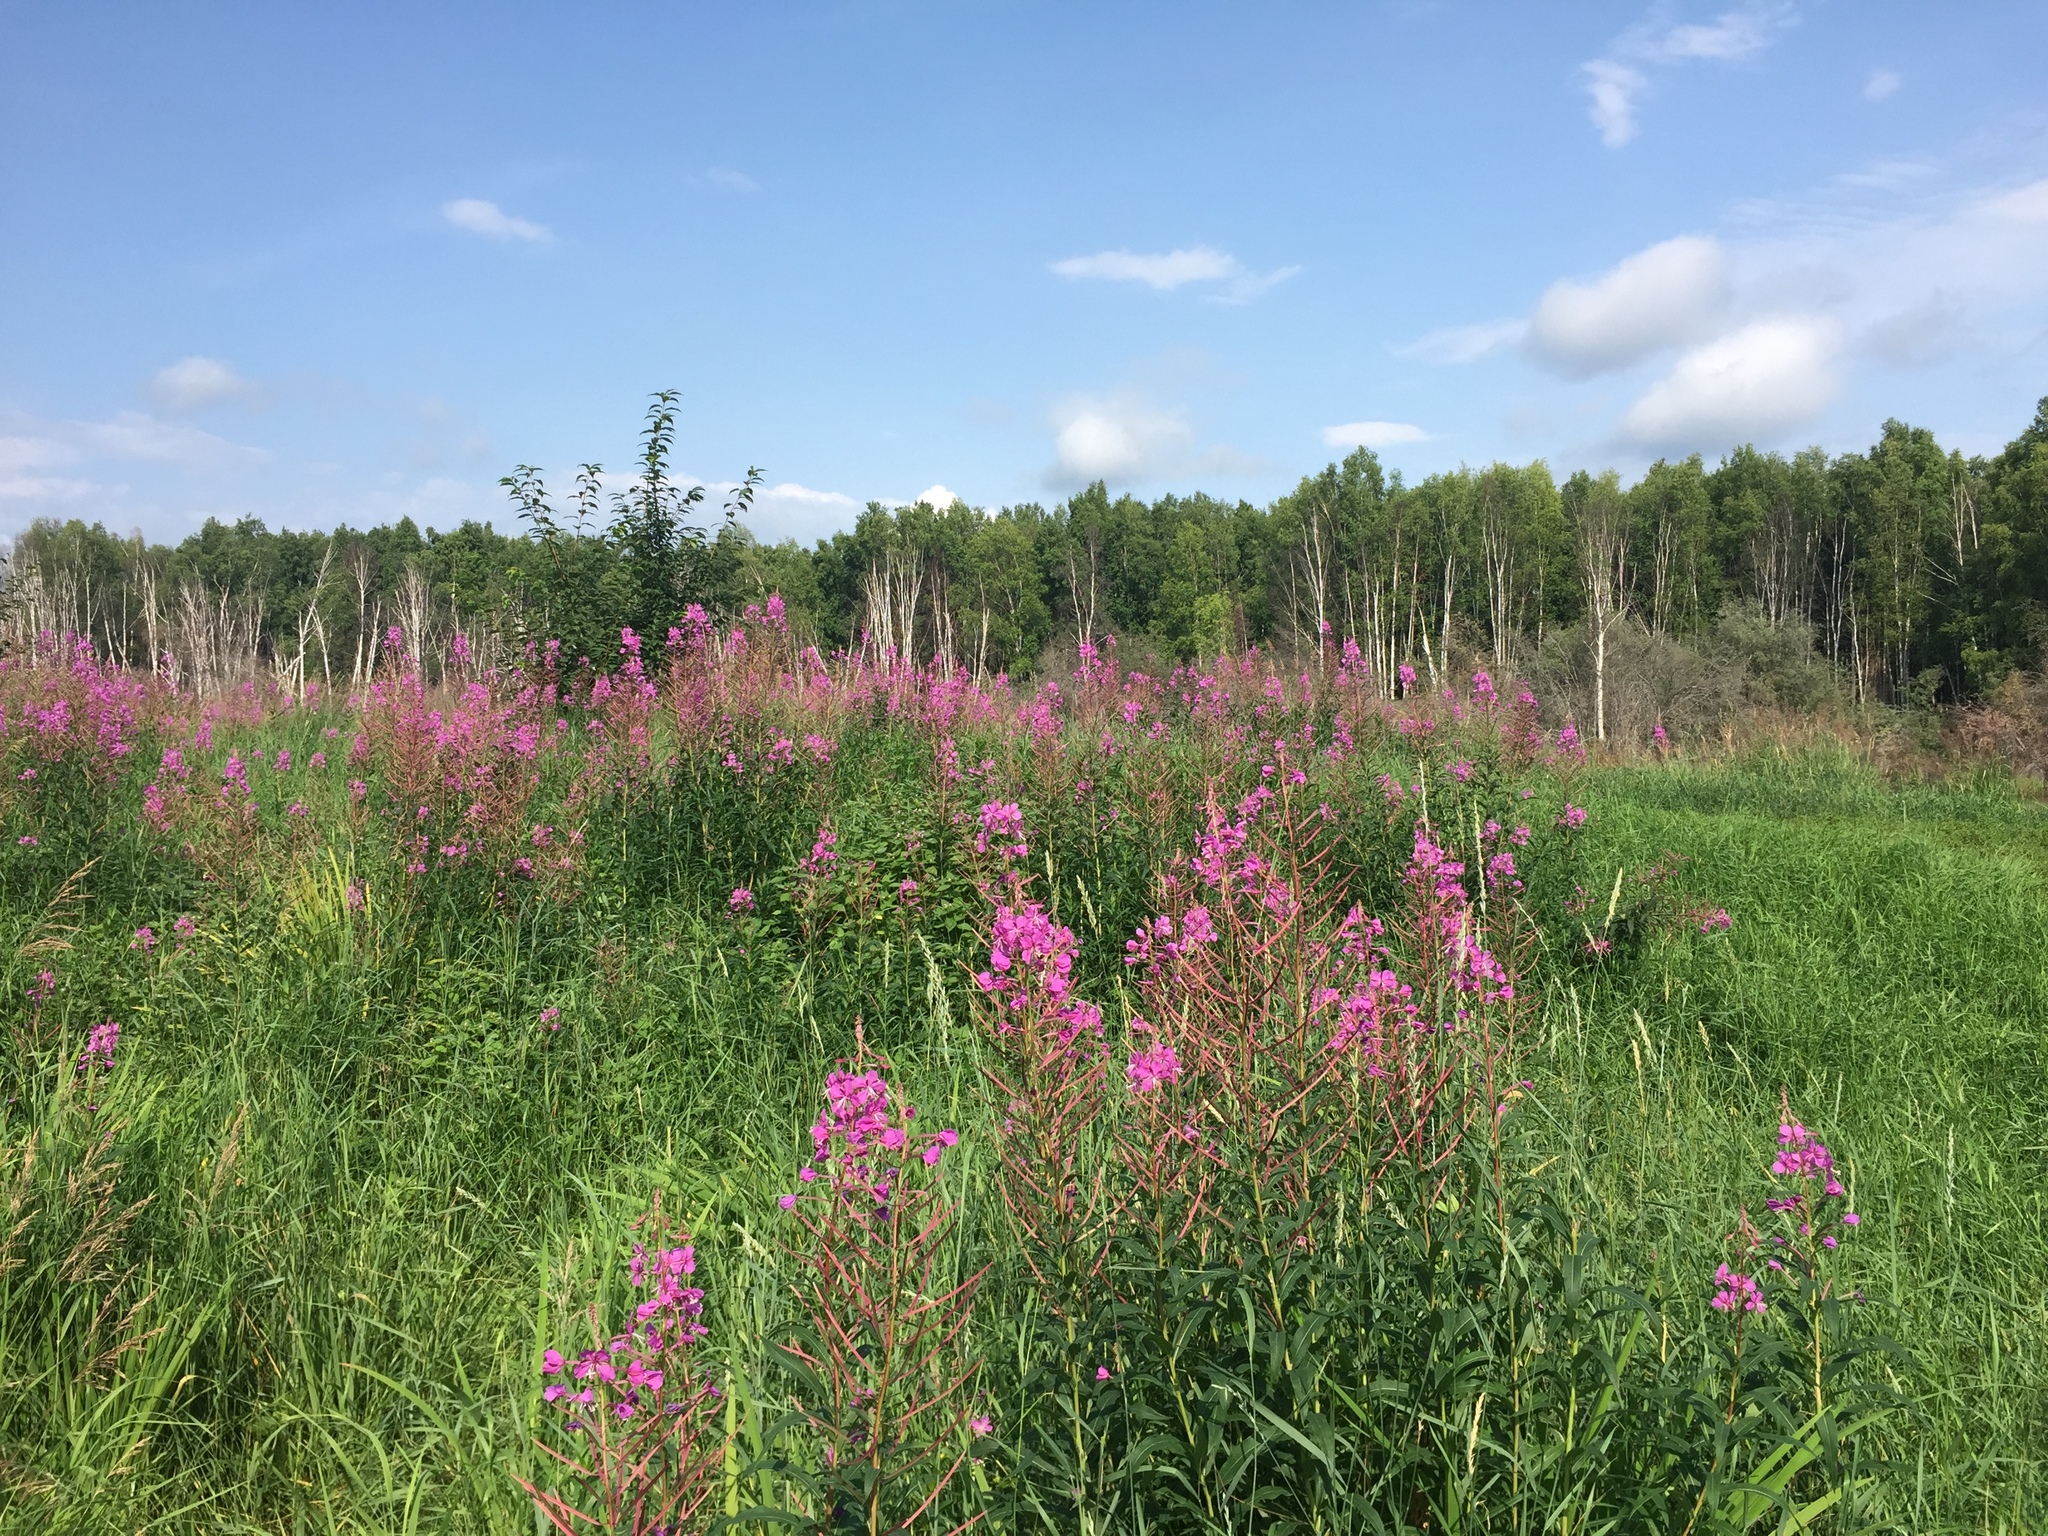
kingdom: Plantae
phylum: Tracheophyta
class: Magnoliopsida
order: Myrtales
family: Onagraceae
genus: Chamaenerion
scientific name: Chamaenerion angustifolium
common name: Fireweed
